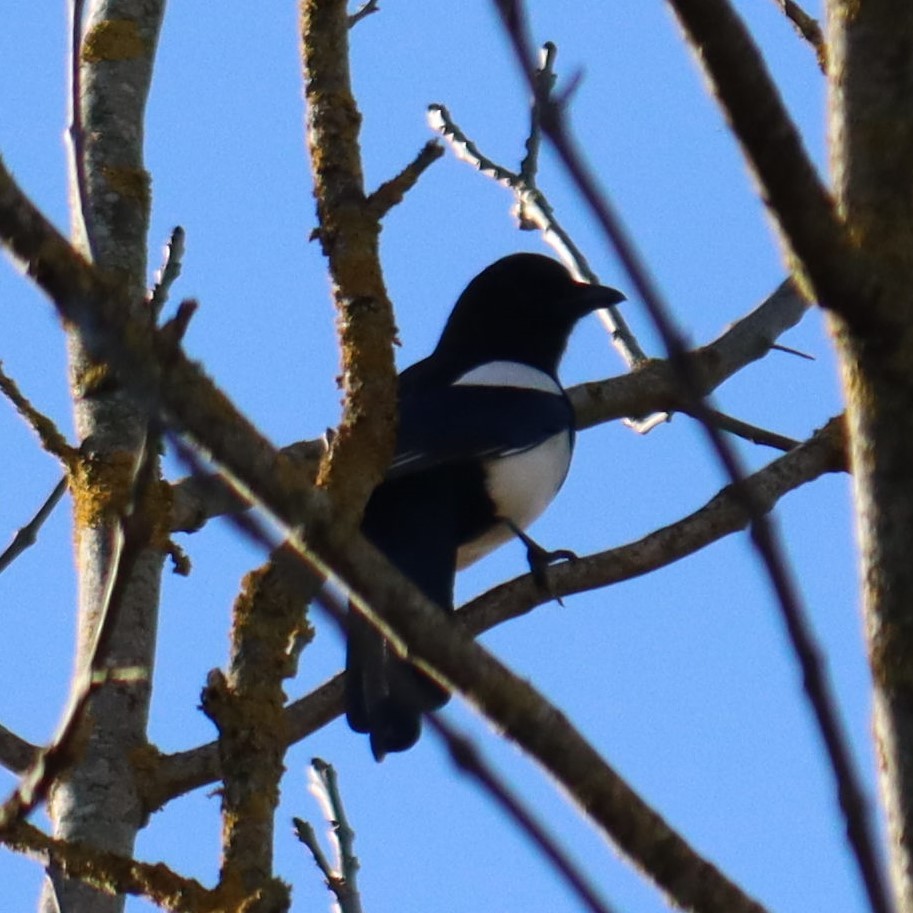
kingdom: Animalia
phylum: Chordata
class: Aves
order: Passeriformes
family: Corvidae
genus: Pica
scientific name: Pica pica
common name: Eurasian magpie
